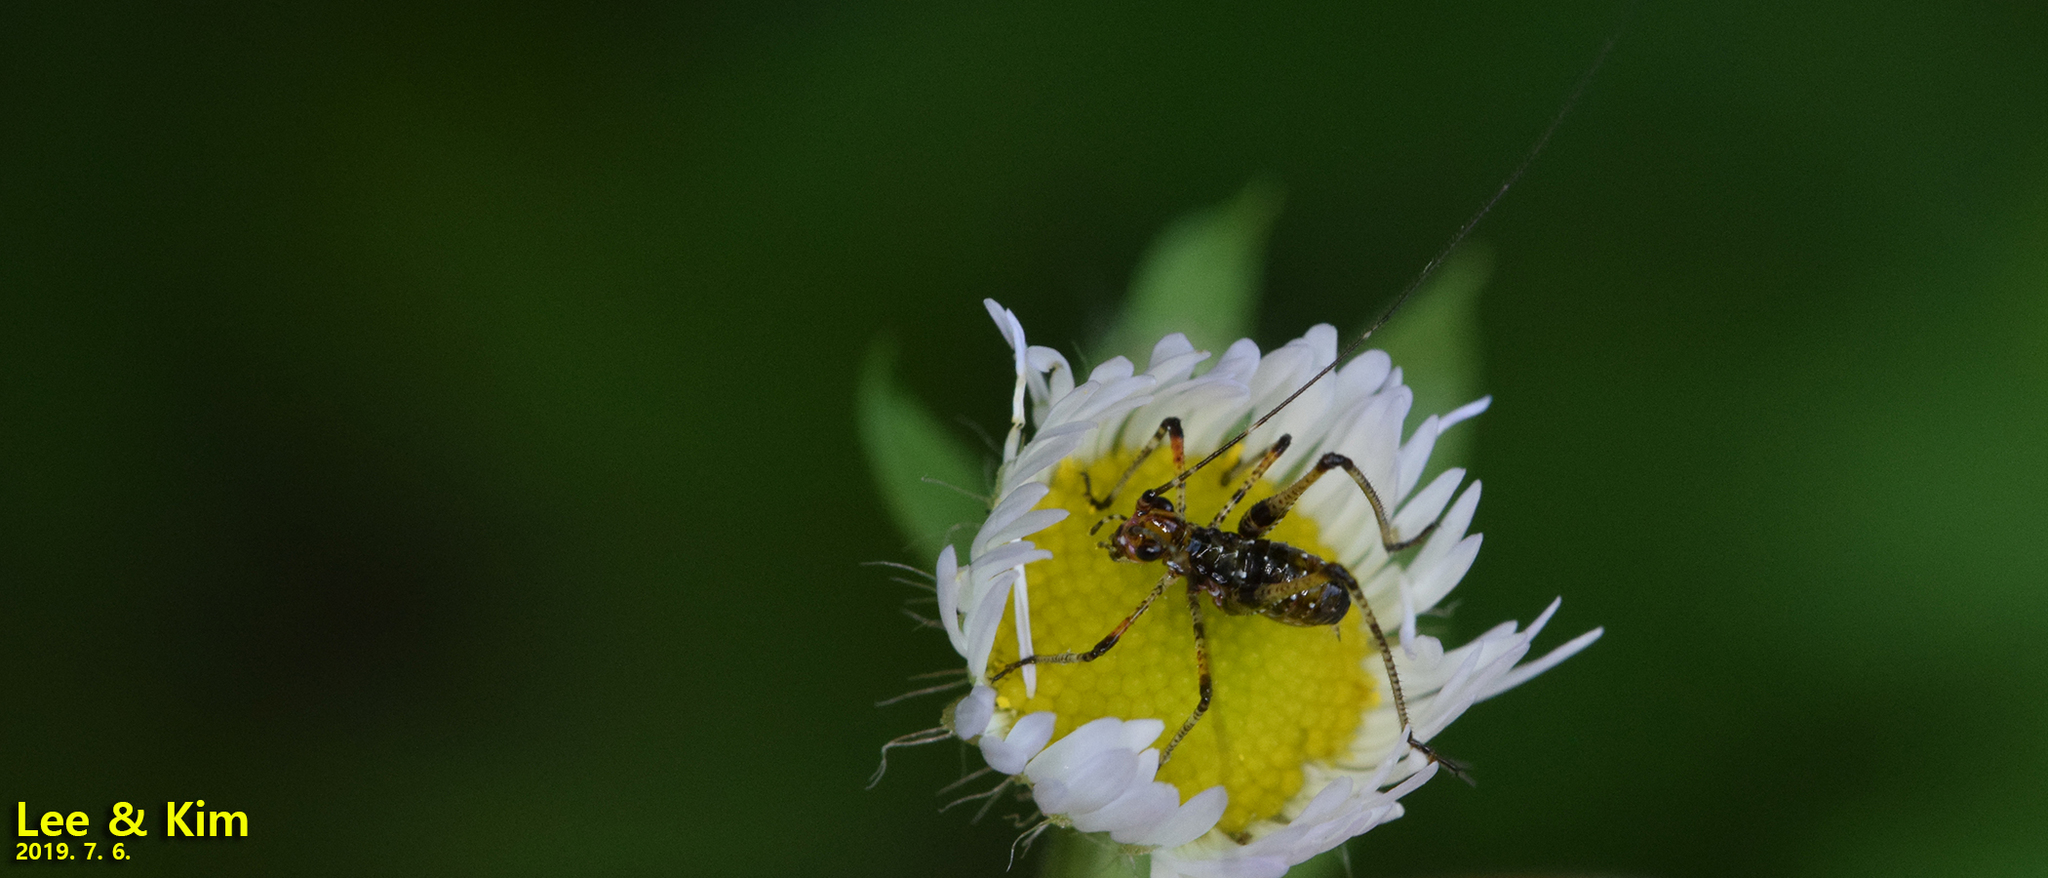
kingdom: Animalia
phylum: Arthropoda
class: Insecta
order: Orthoptera
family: Tettigoniidae
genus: Phaneroptera
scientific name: Phaneroptera nigroantennata
